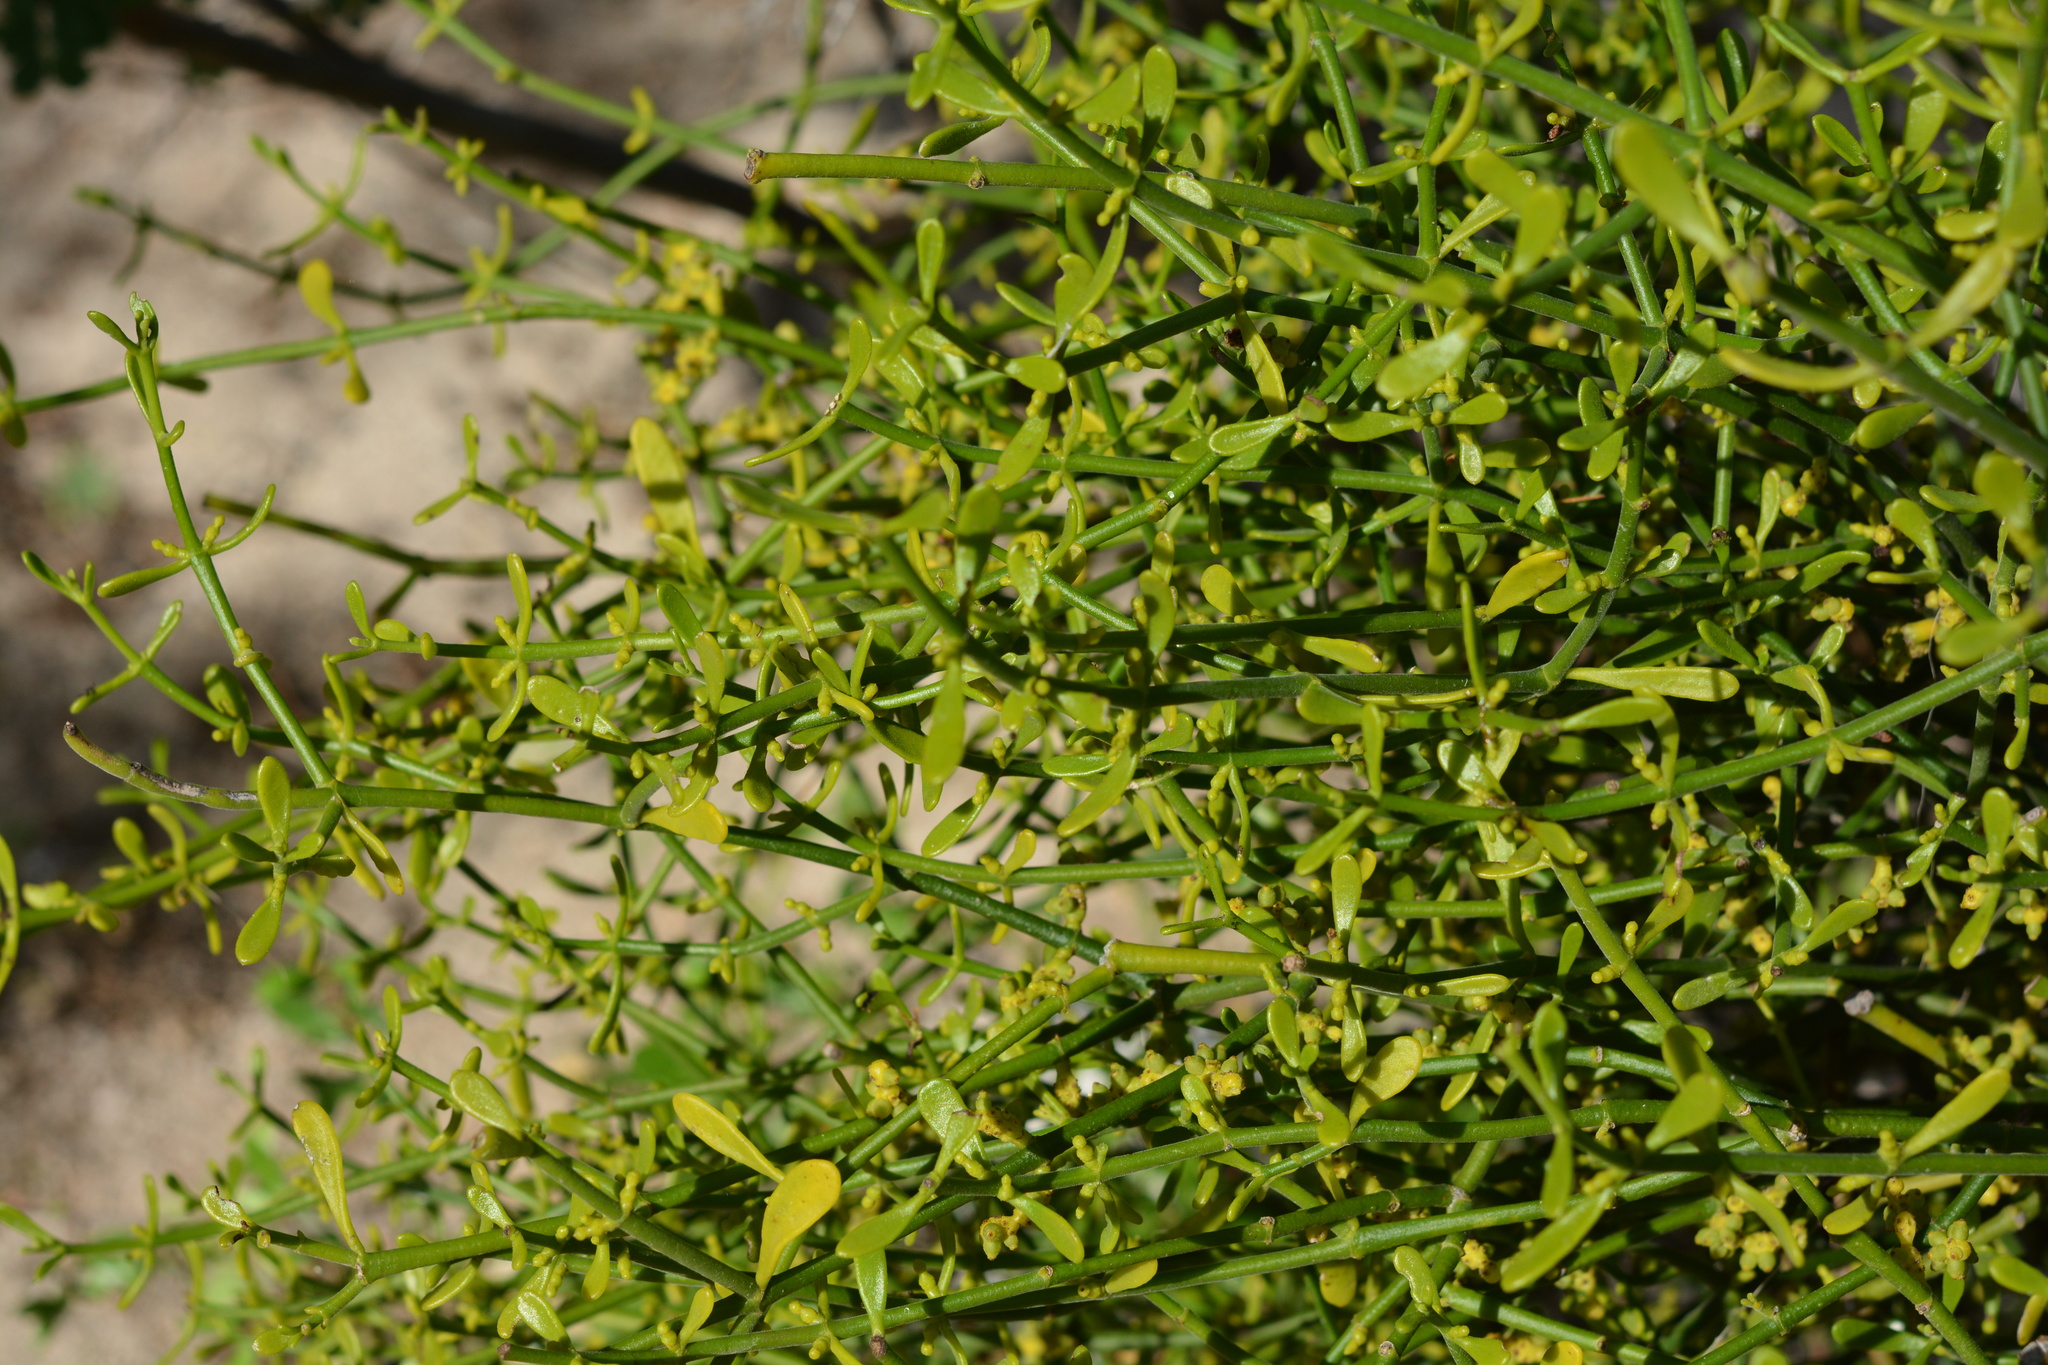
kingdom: Plantae
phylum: Tracheophyta
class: Magnoliopsida
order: Santalales
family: Viscaceae
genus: Phoradendron
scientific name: Phoradendron brachystachyum
